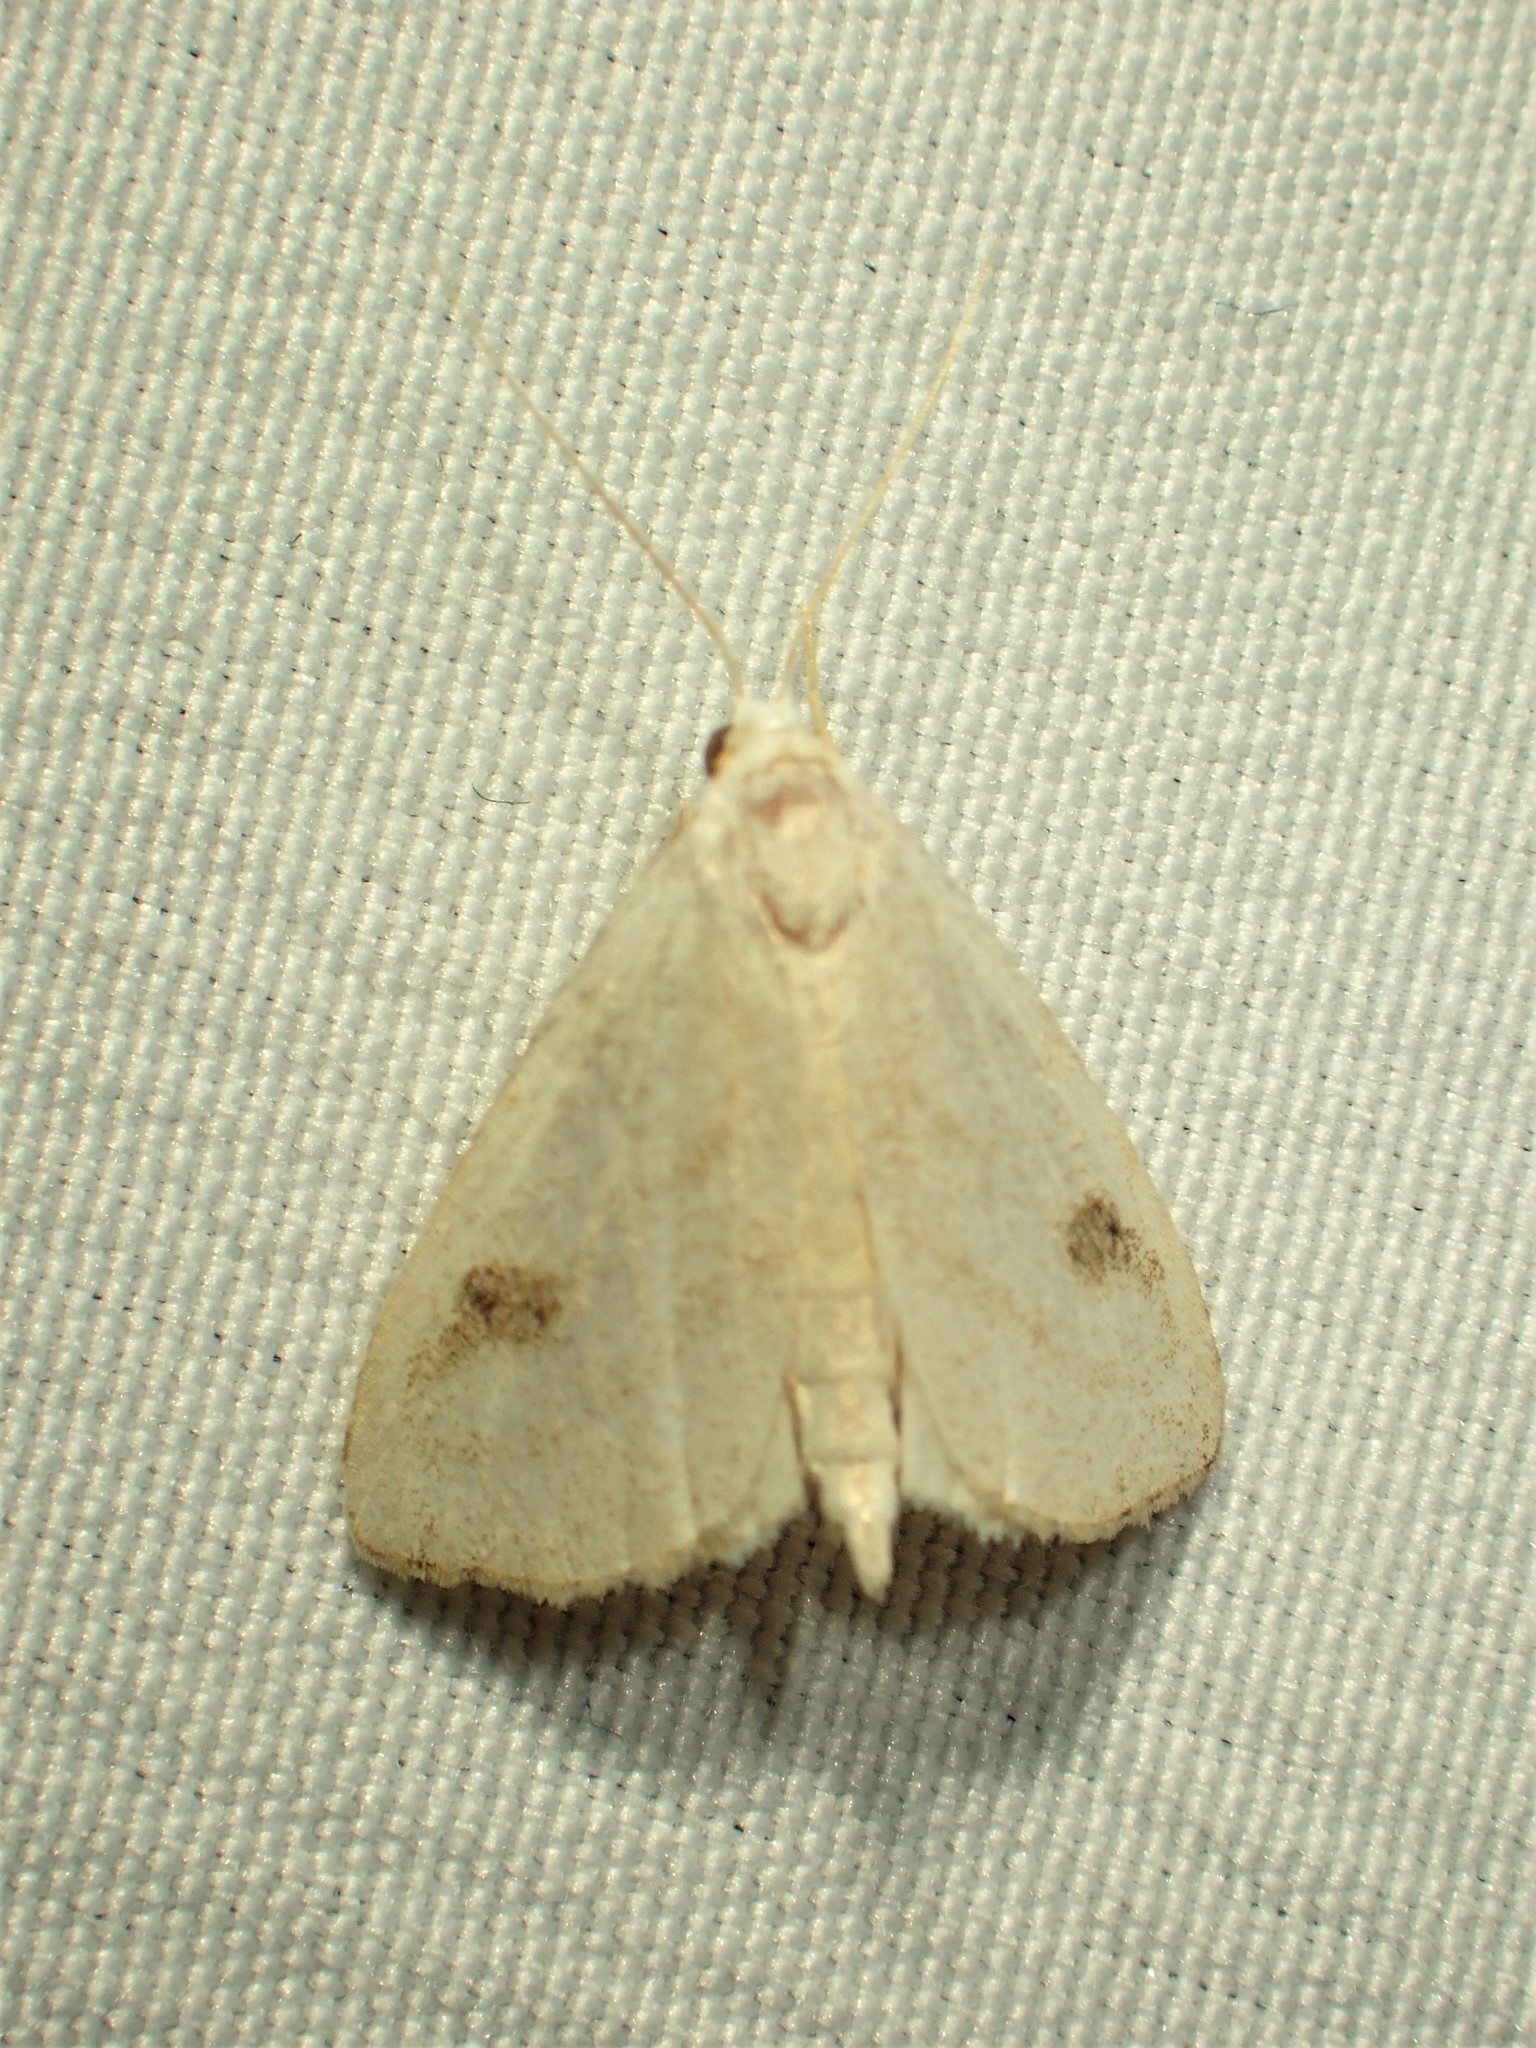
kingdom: Animalia
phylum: Arthropoda
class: Insecta
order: Lepidoptera
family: Erebidae
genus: Rivula
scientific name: Rivula propinqualis
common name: Spotted grass moth
